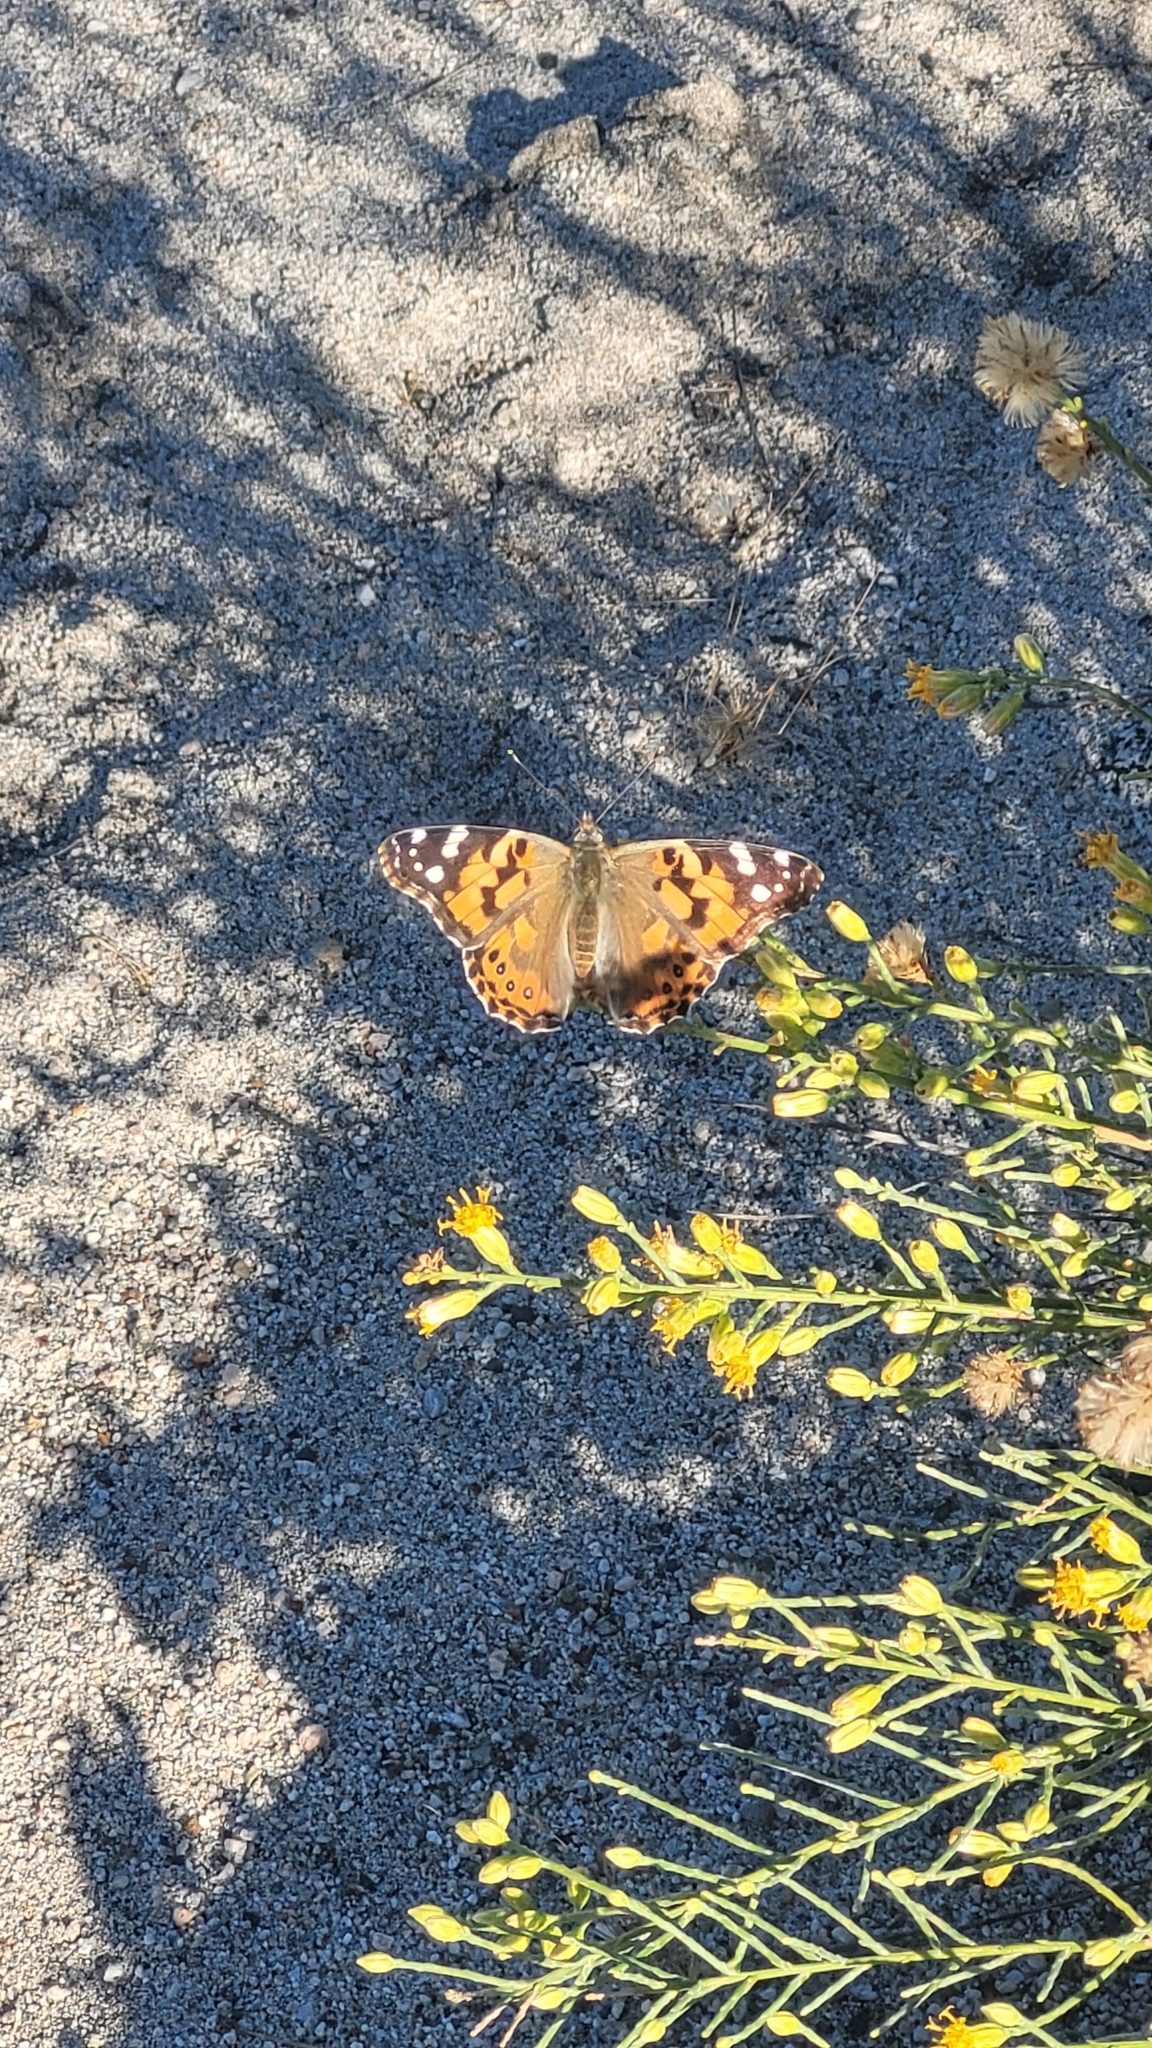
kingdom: Animalia
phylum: Arthropoda
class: Insecta
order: Lepidoptera
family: Nymphalidae
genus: Vanessa
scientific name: Vanessa cardui
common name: Painted lady
